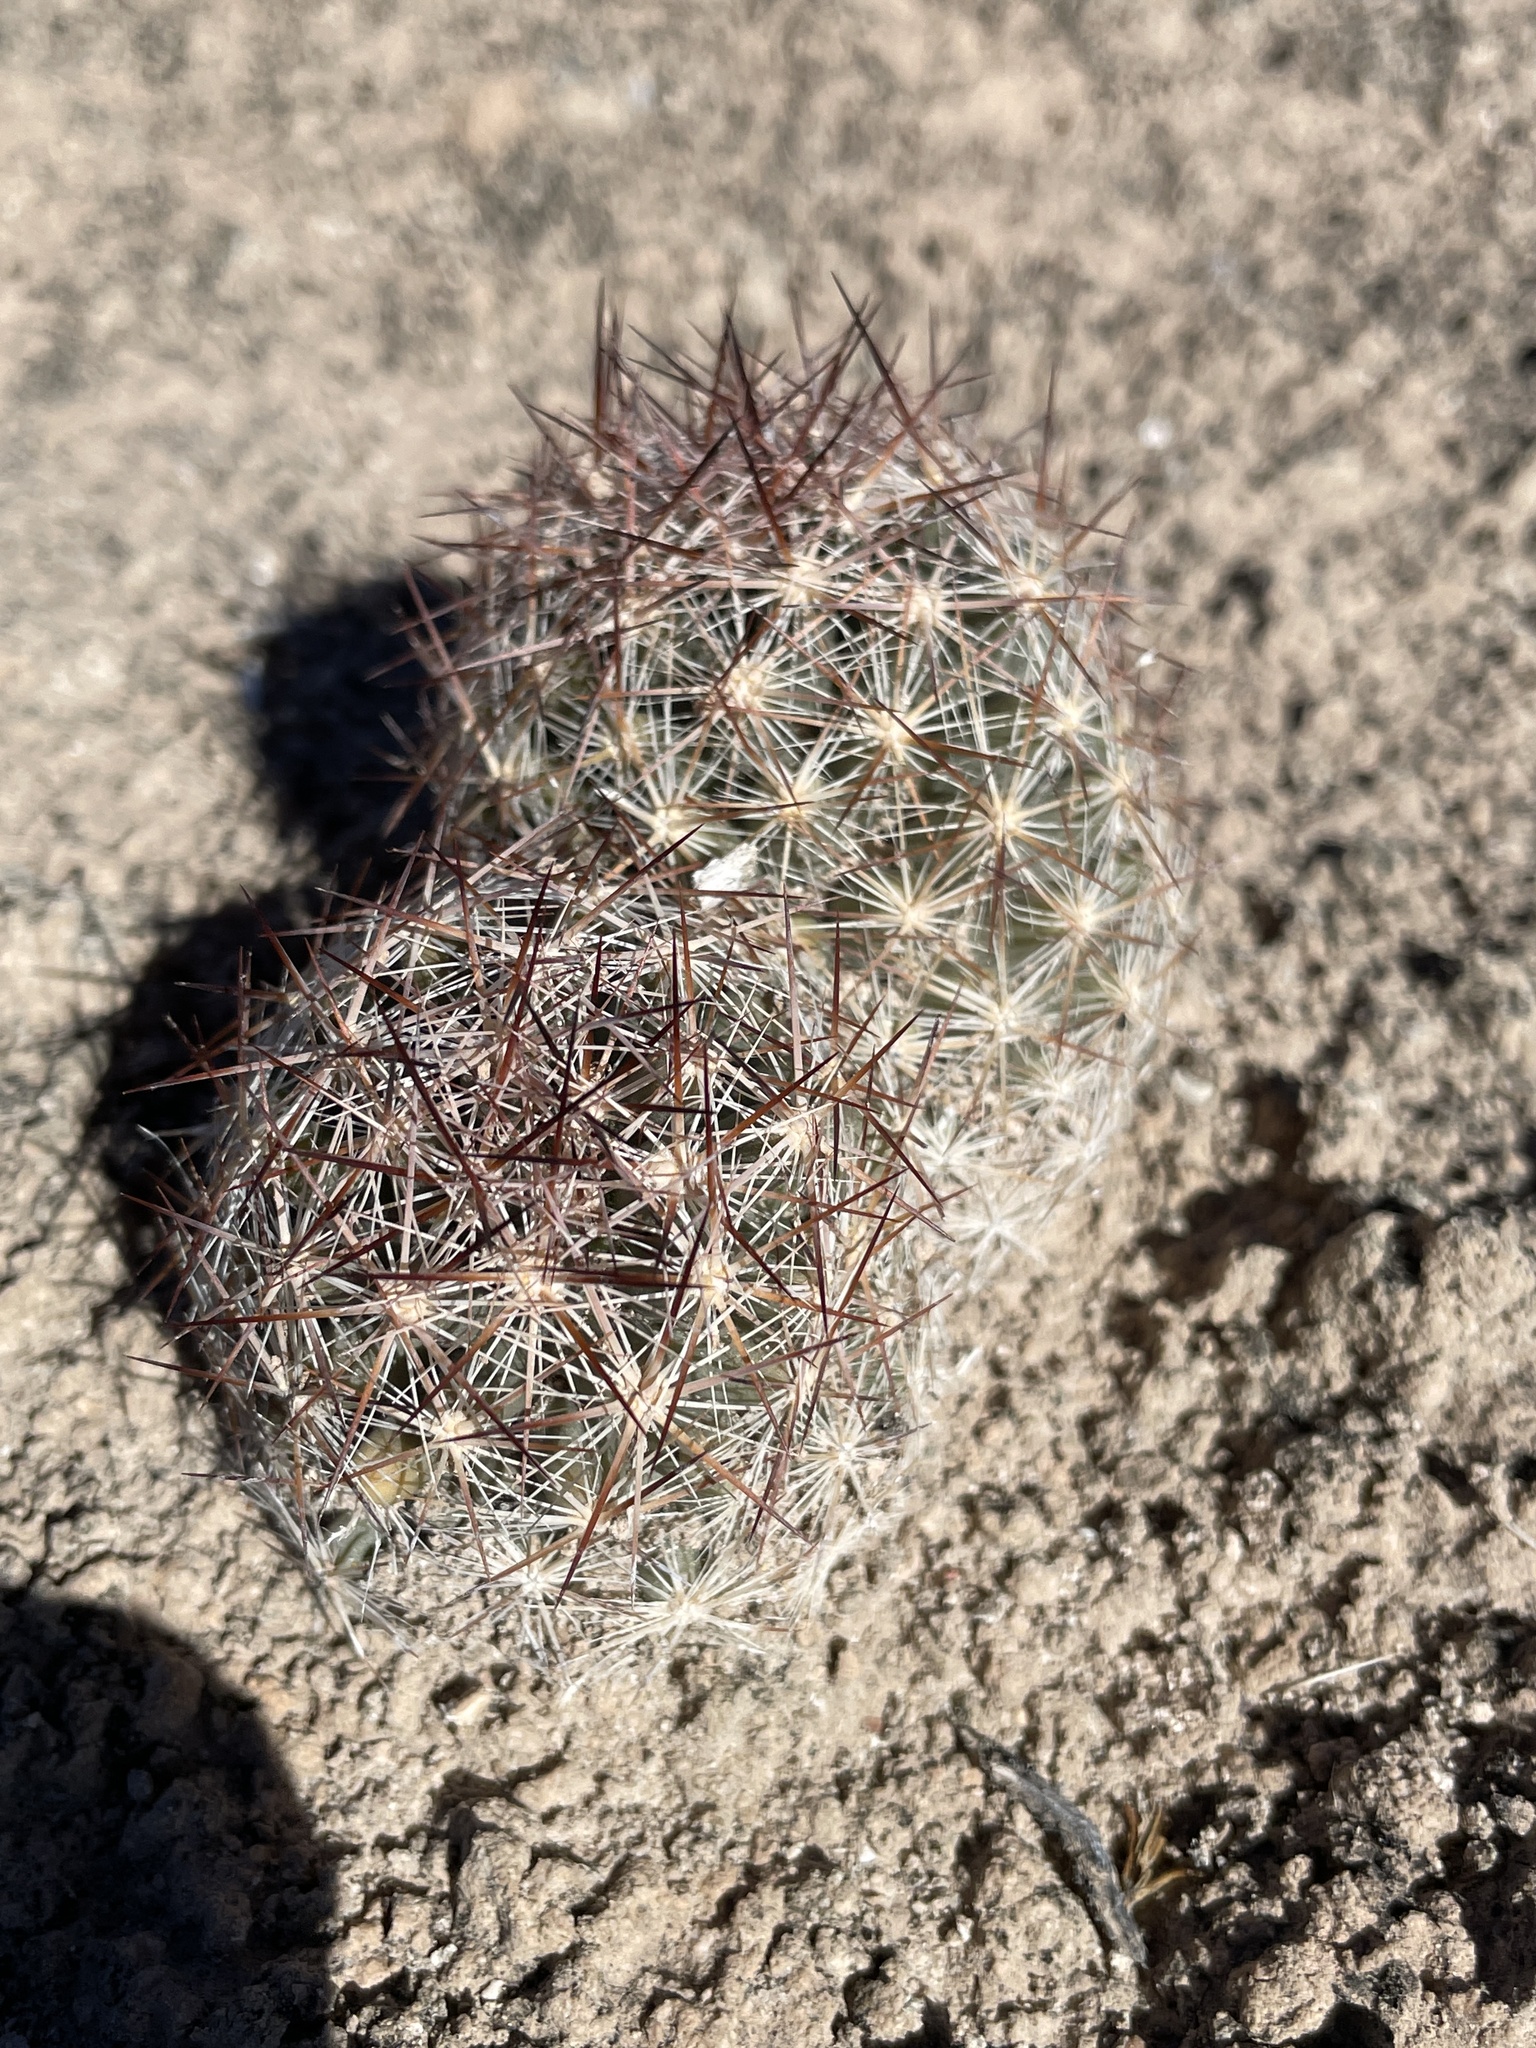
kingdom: Plantae
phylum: Tracheophyta
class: Magnoliopsida
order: Caryophyllales
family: Cactaceae
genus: Pelecyphora
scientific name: Pelecyphora vivipara
